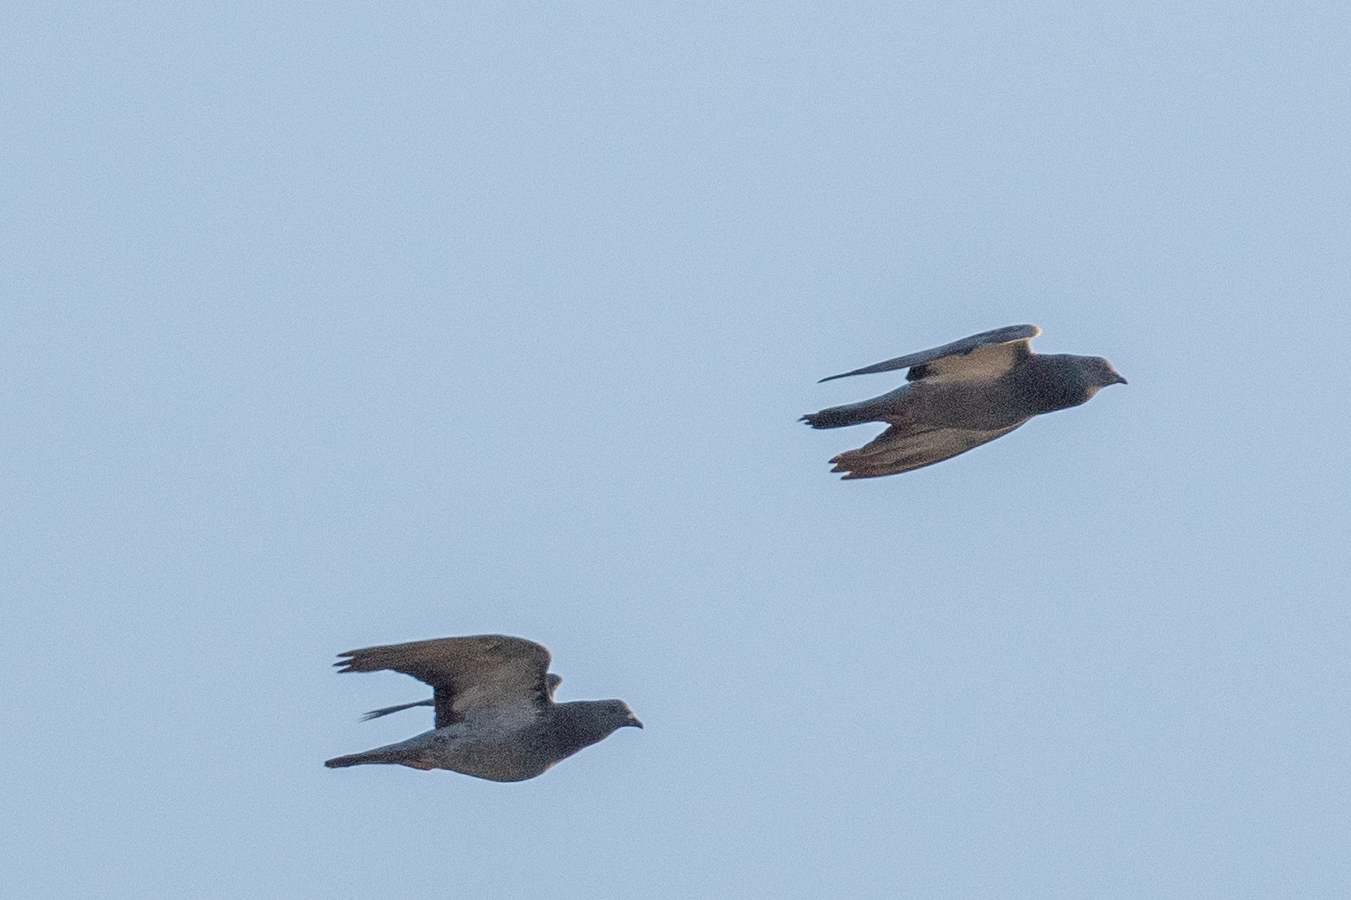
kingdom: Animalia
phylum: Chordata
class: Aves
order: Columbiformes
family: Columbidae
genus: Columba
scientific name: Columba livia
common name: Rock pigeon
